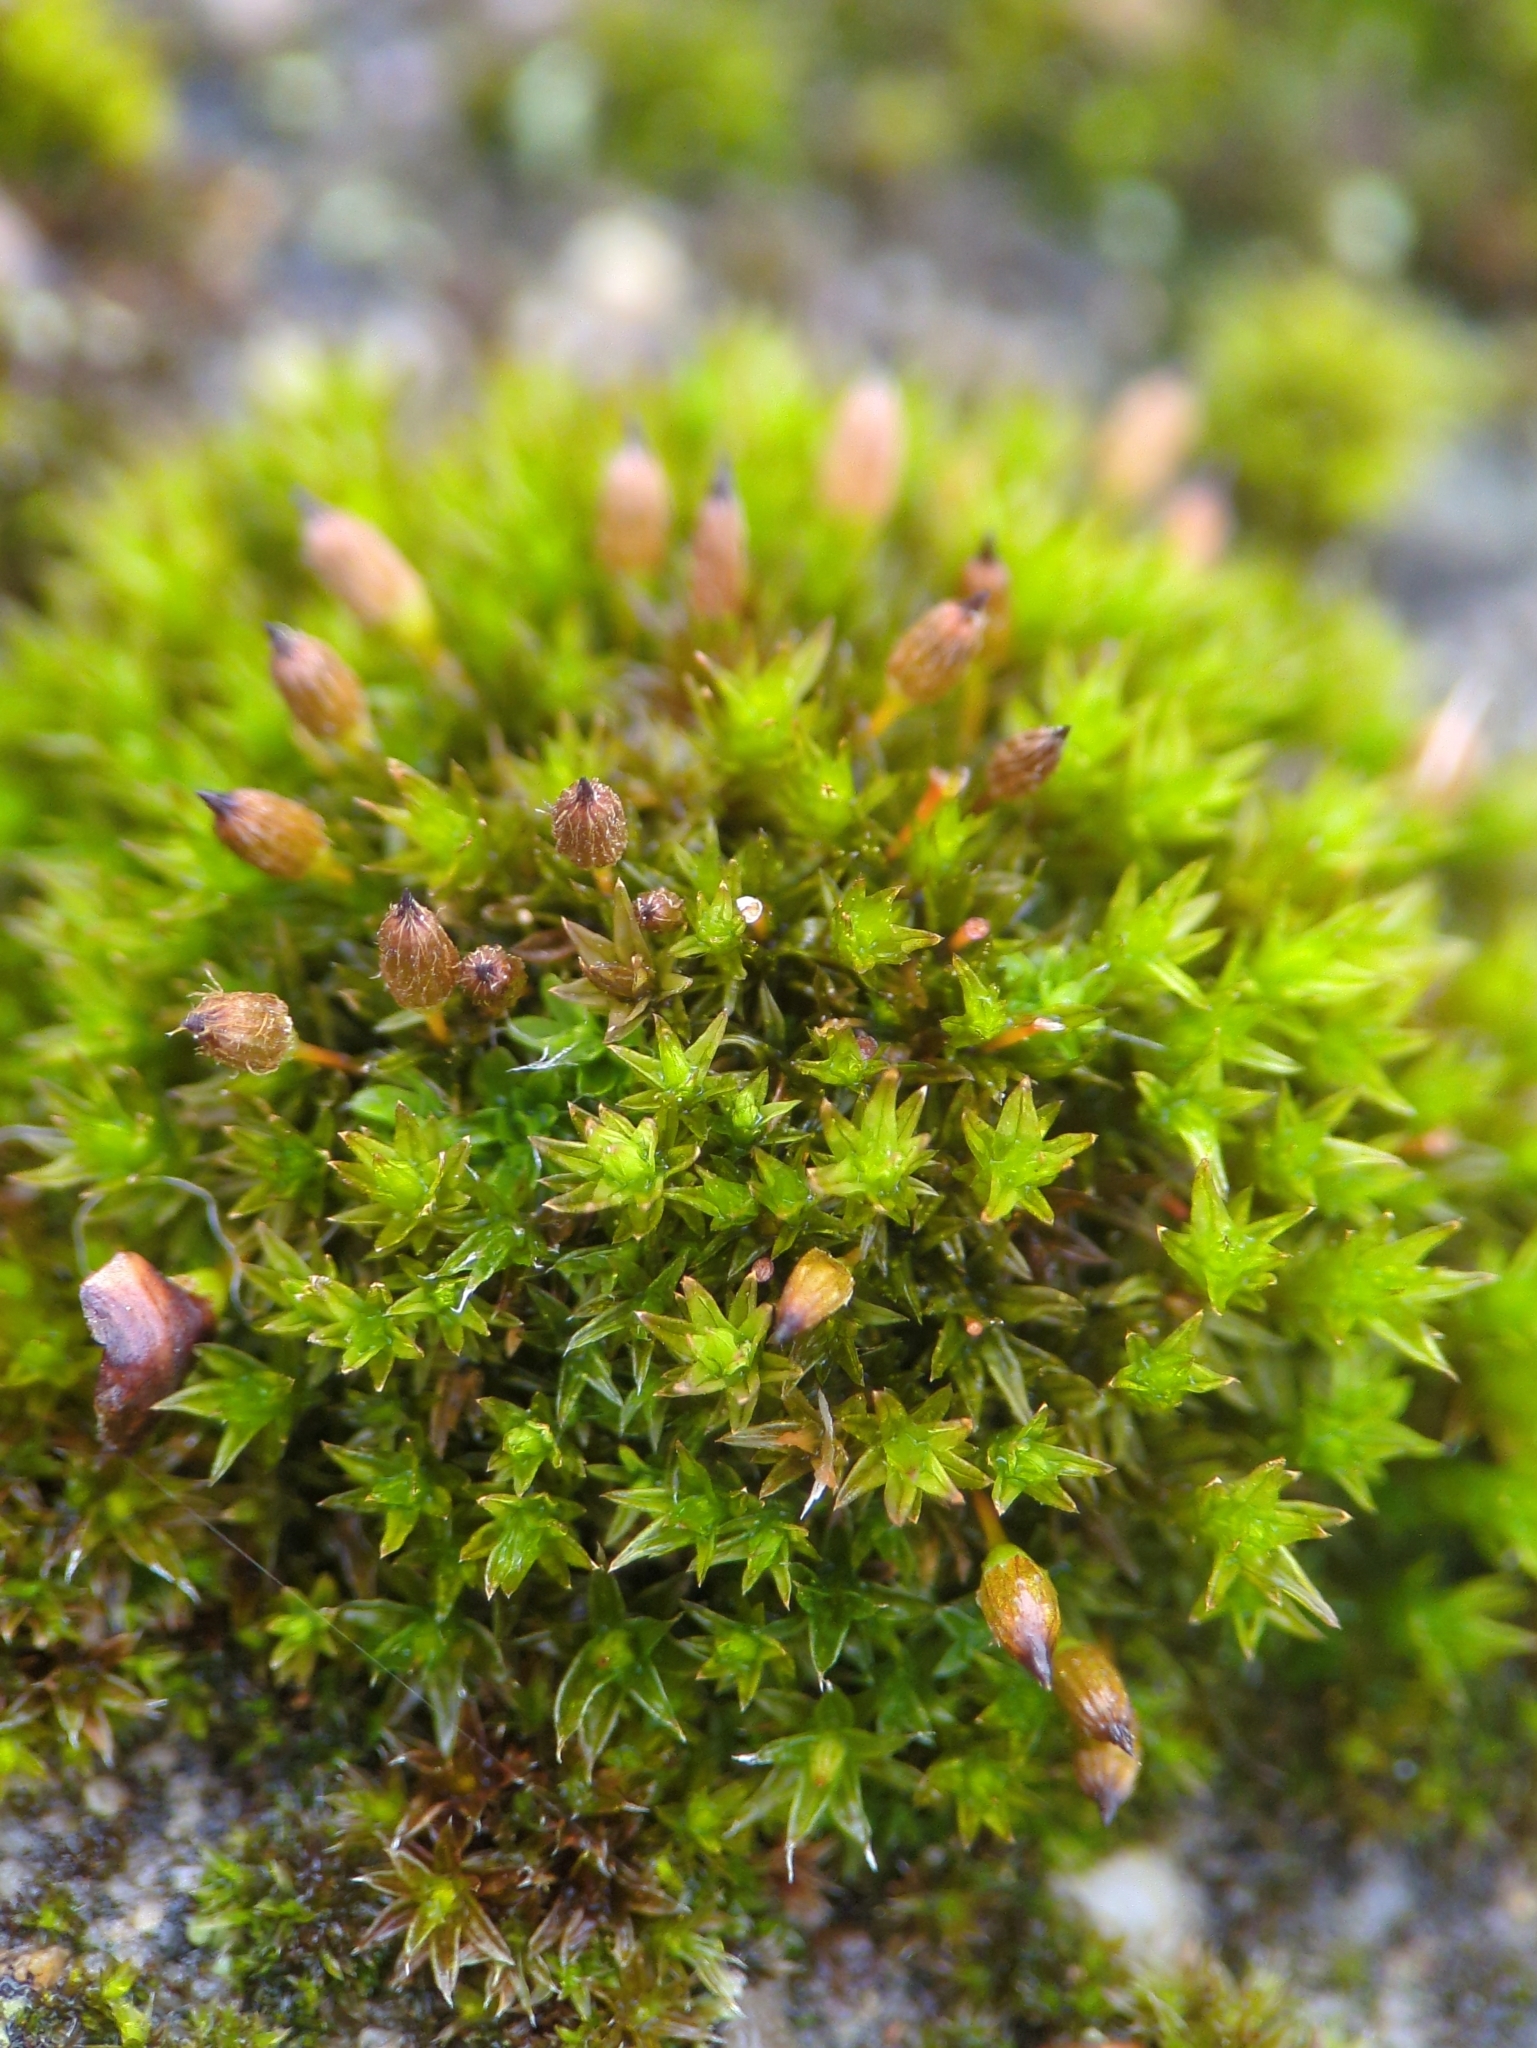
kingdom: Plantae
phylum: Bryophyta
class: Bryopsida
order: Orthotrichales
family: Orthotrichaceae
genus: Orthotrichum
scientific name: Orthotrichum anomalum
